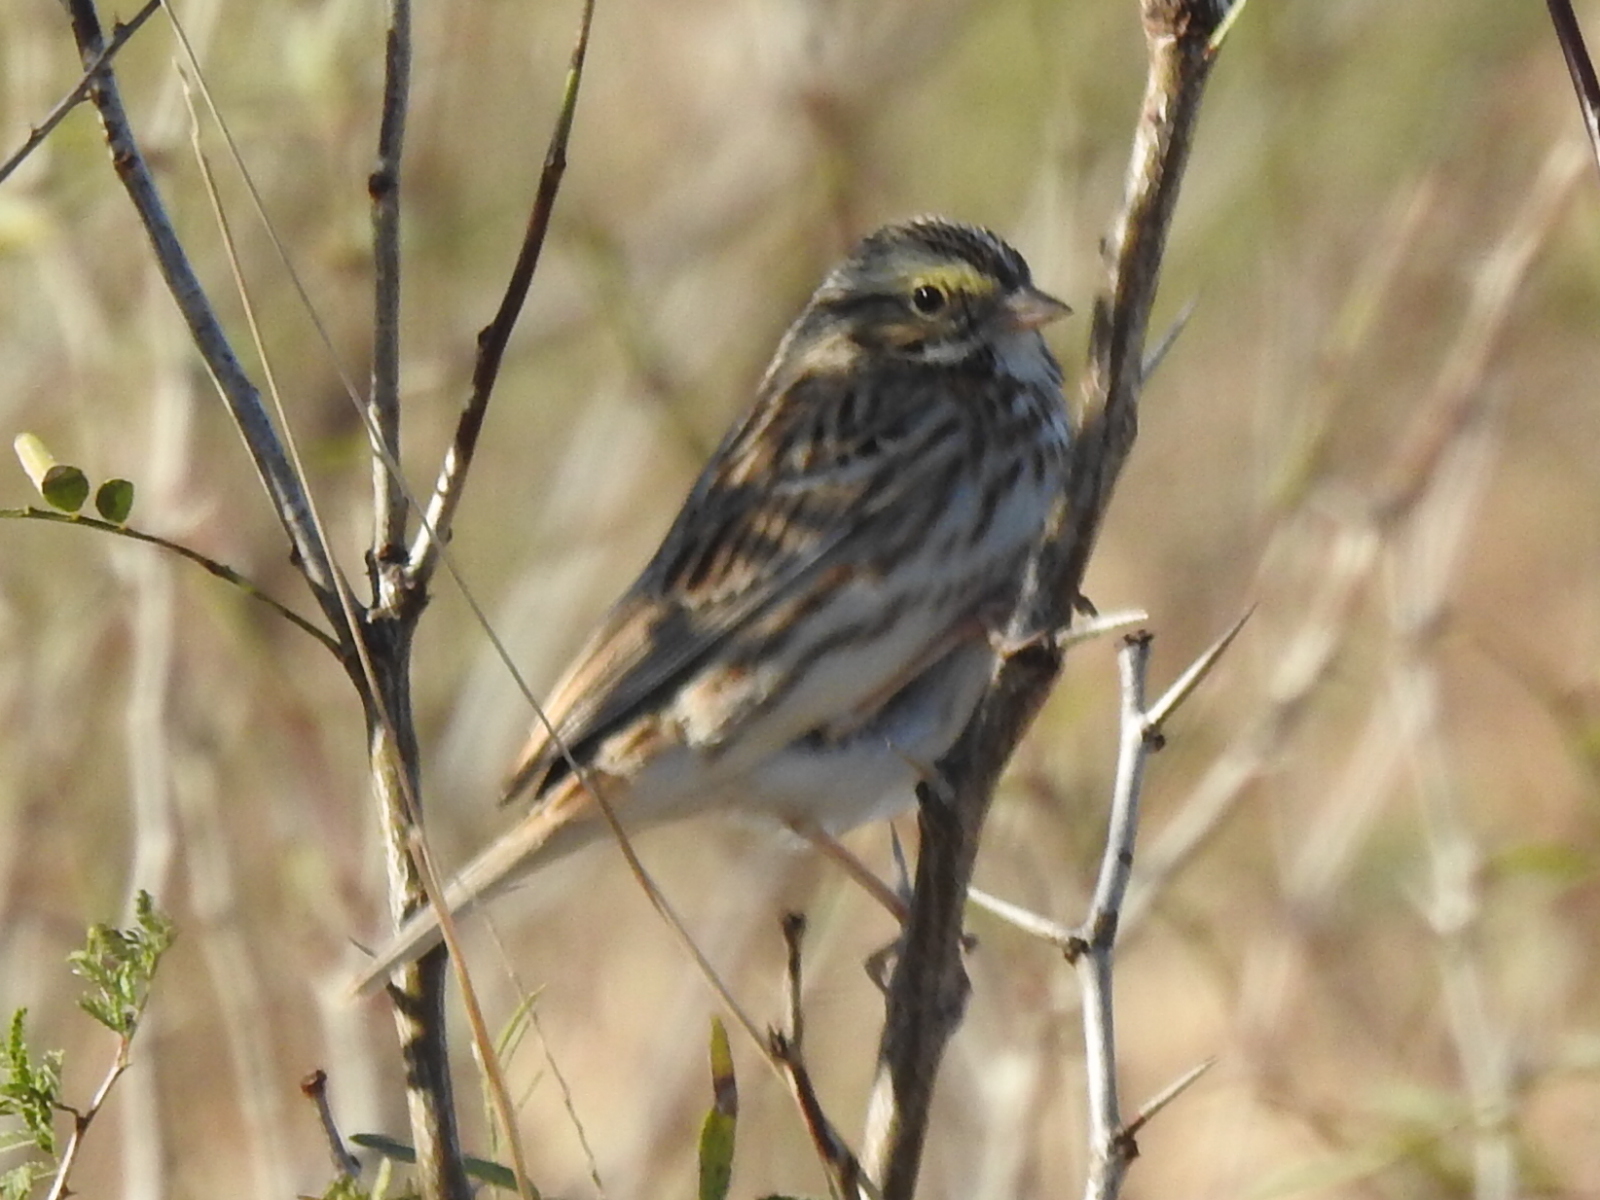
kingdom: Animalia
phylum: Chordata
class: Aves
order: Passeriformes
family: Passerellidae
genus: Passerculus
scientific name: Passerculus sandwichensis
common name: Savannah sparrow
